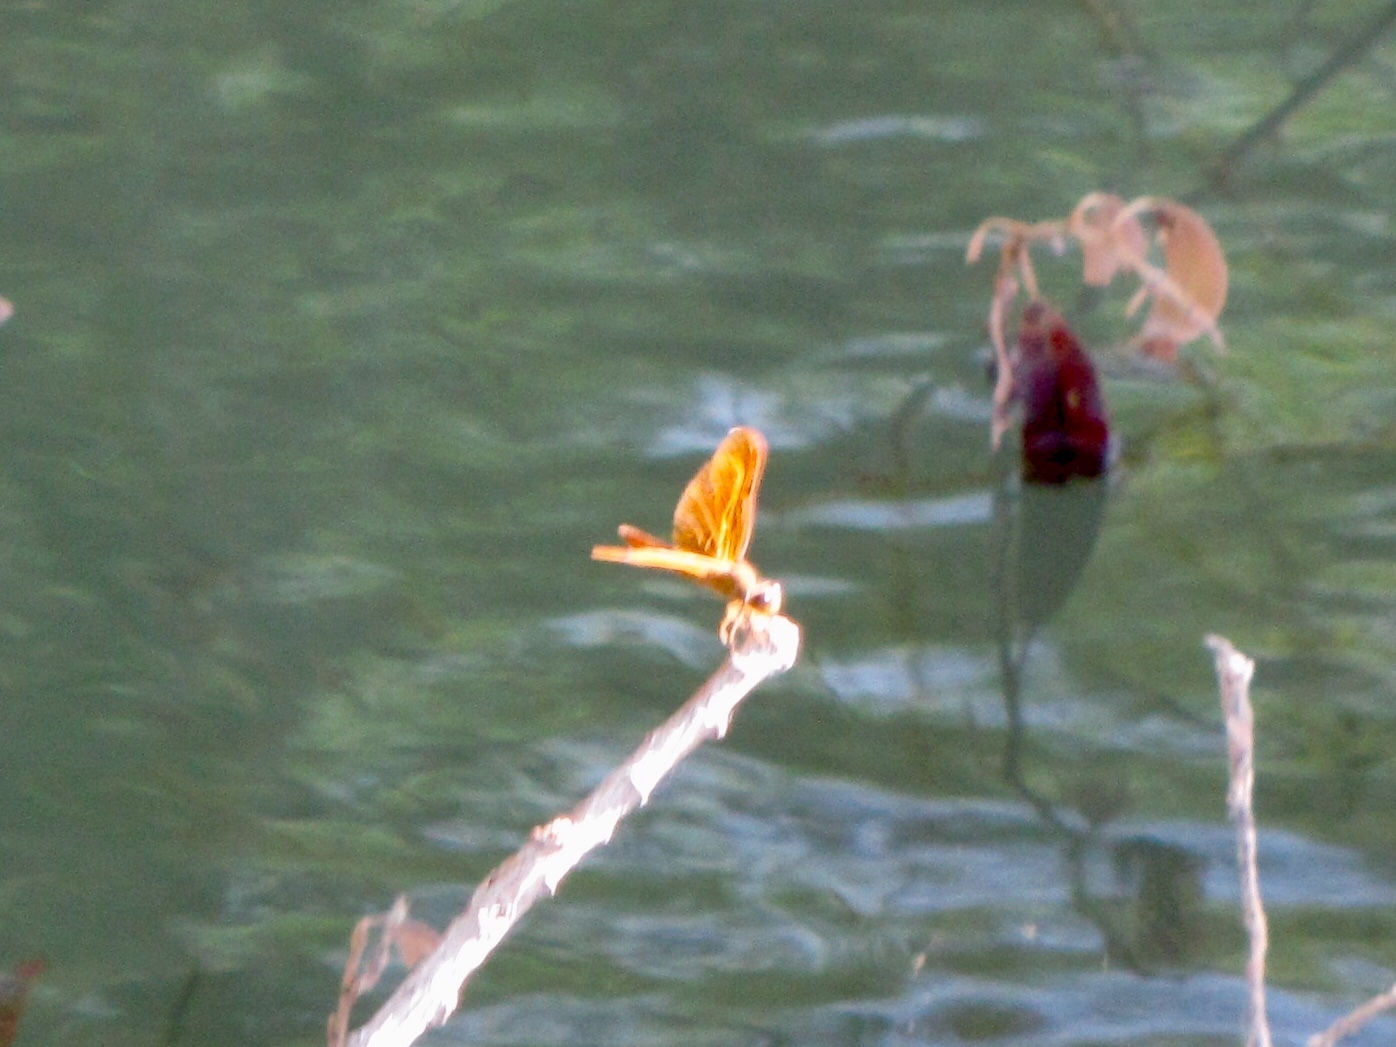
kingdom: Animalia
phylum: Arthropoda
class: Insecta
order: Odonata
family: Libellulidae
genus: Perithemis
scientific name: Perithemis intensa
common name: Mexican amberwing
